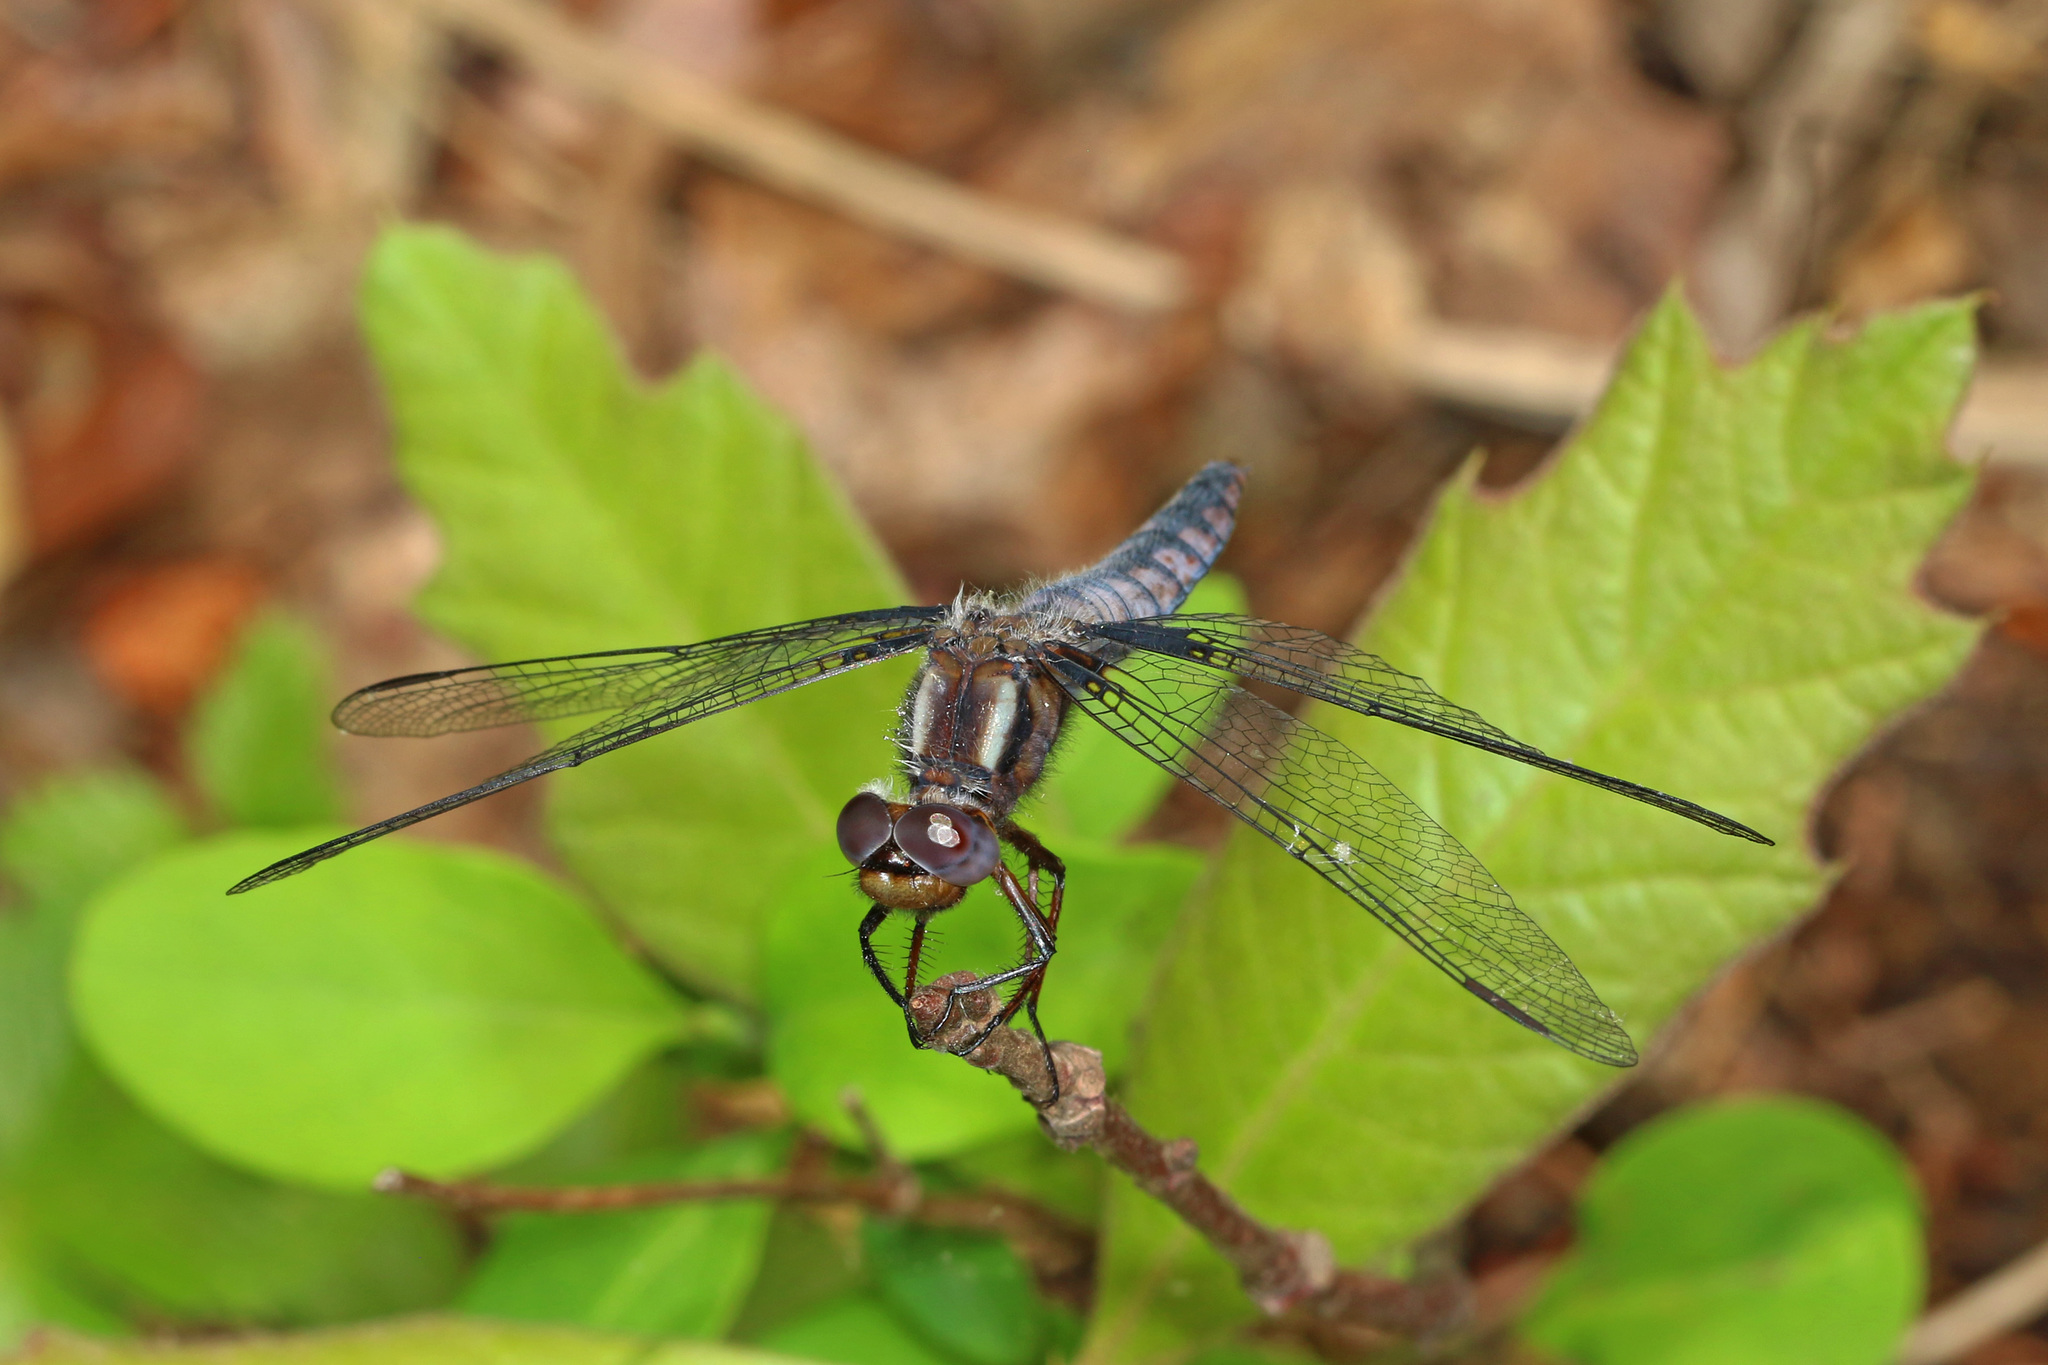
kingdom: Animalia
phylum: Arthropoda
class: Insecta
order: Odonata
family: Libellulidae
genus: Ladona
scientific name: Ladona deplanata
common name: Blue corporal
